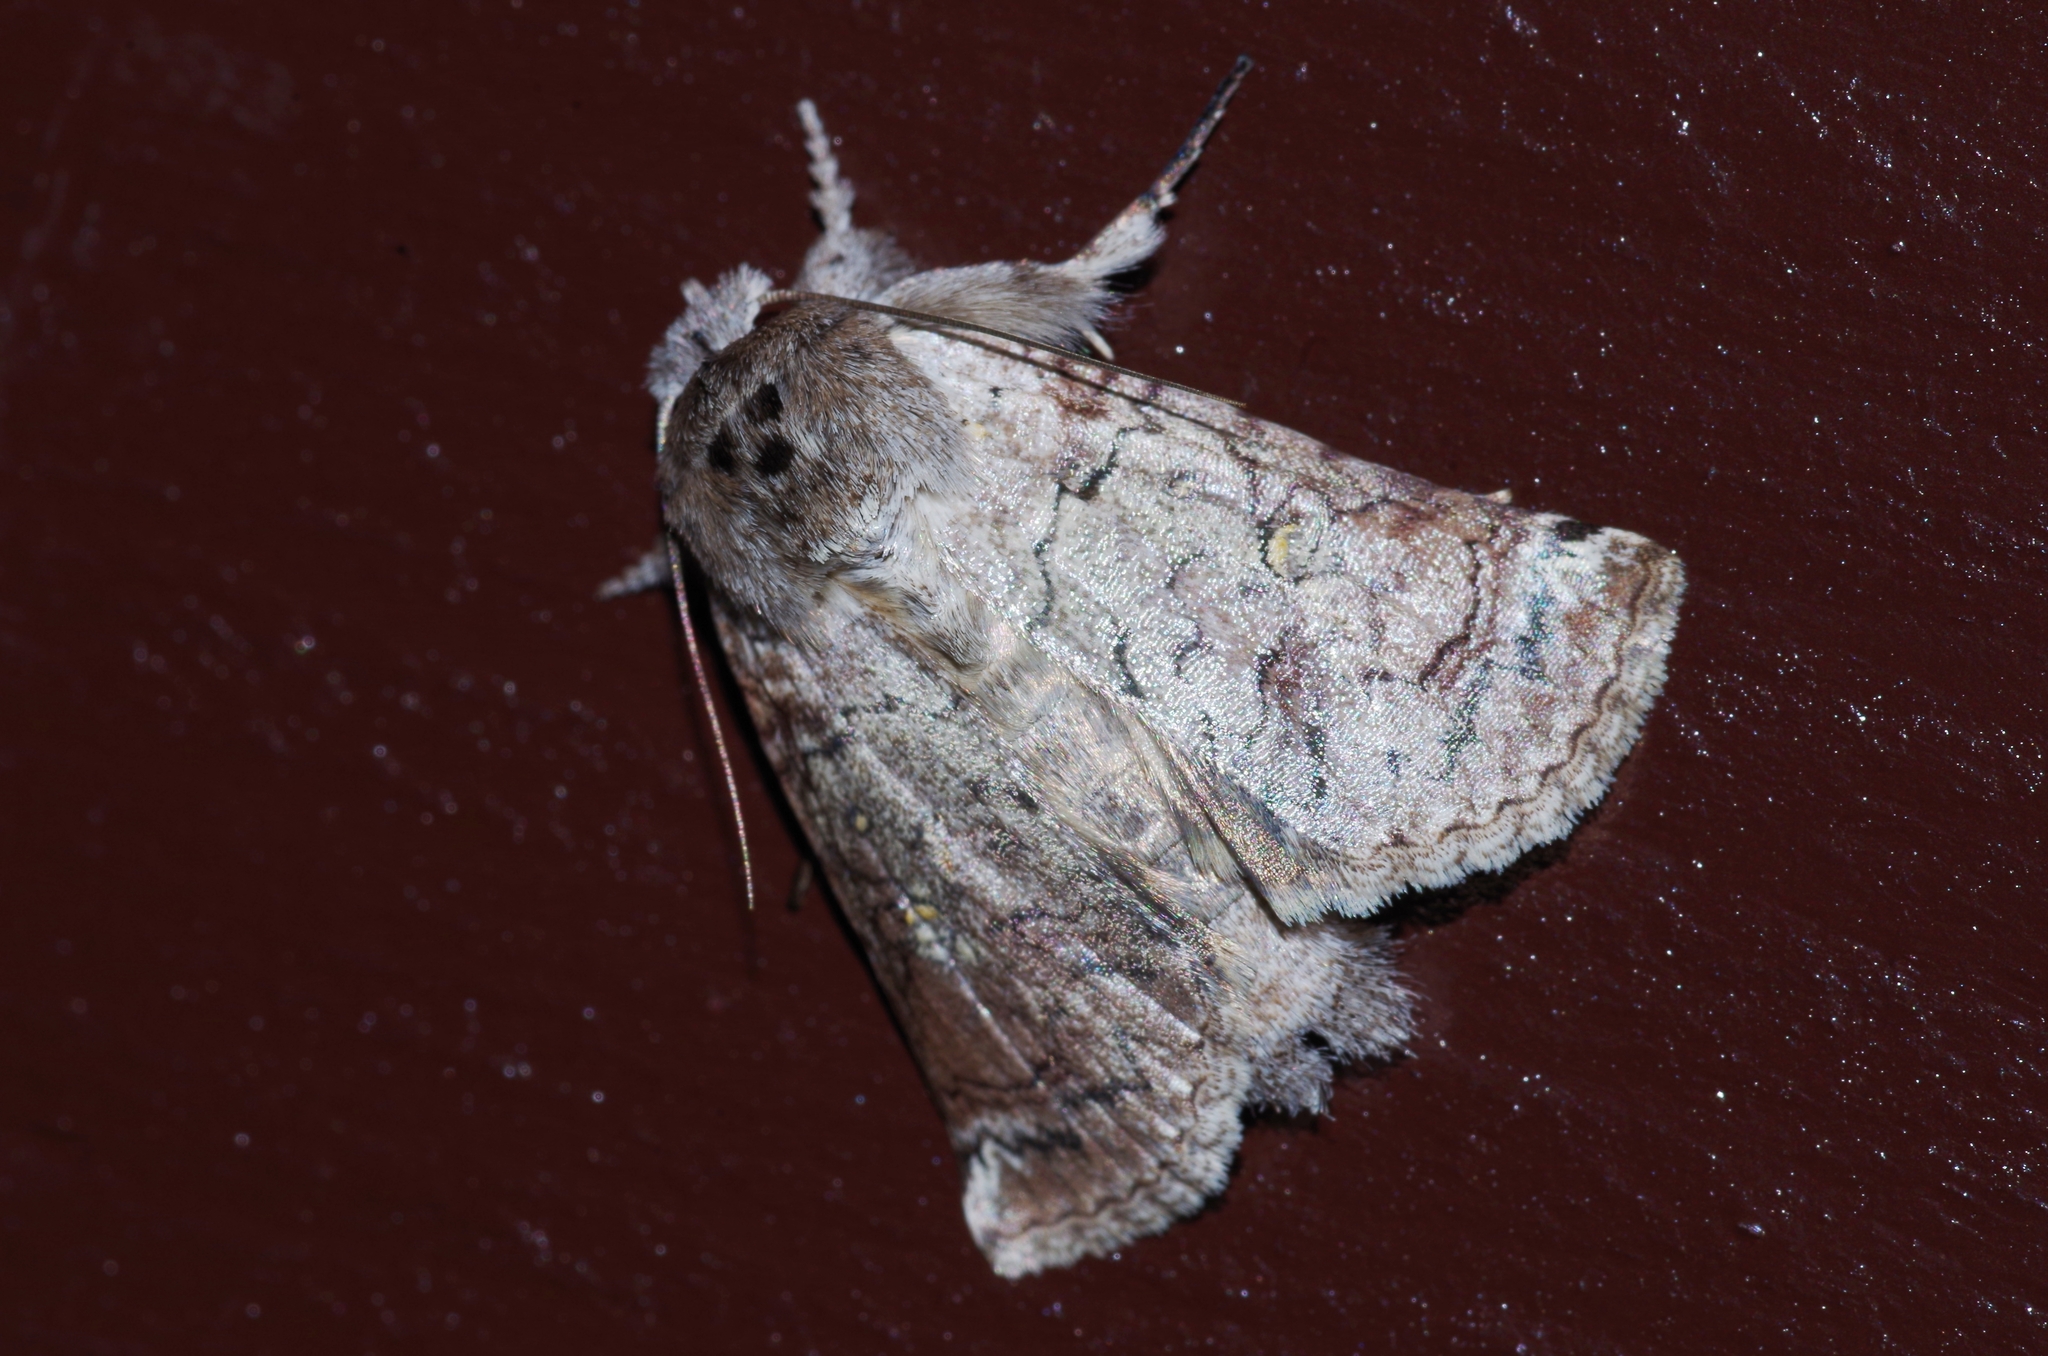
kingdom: Animalia
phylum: Arthropoda
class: Insecta
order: Lepidoptera
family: Nolidae
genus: Macrobarasa
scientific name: Macrobarasa xantholopha
